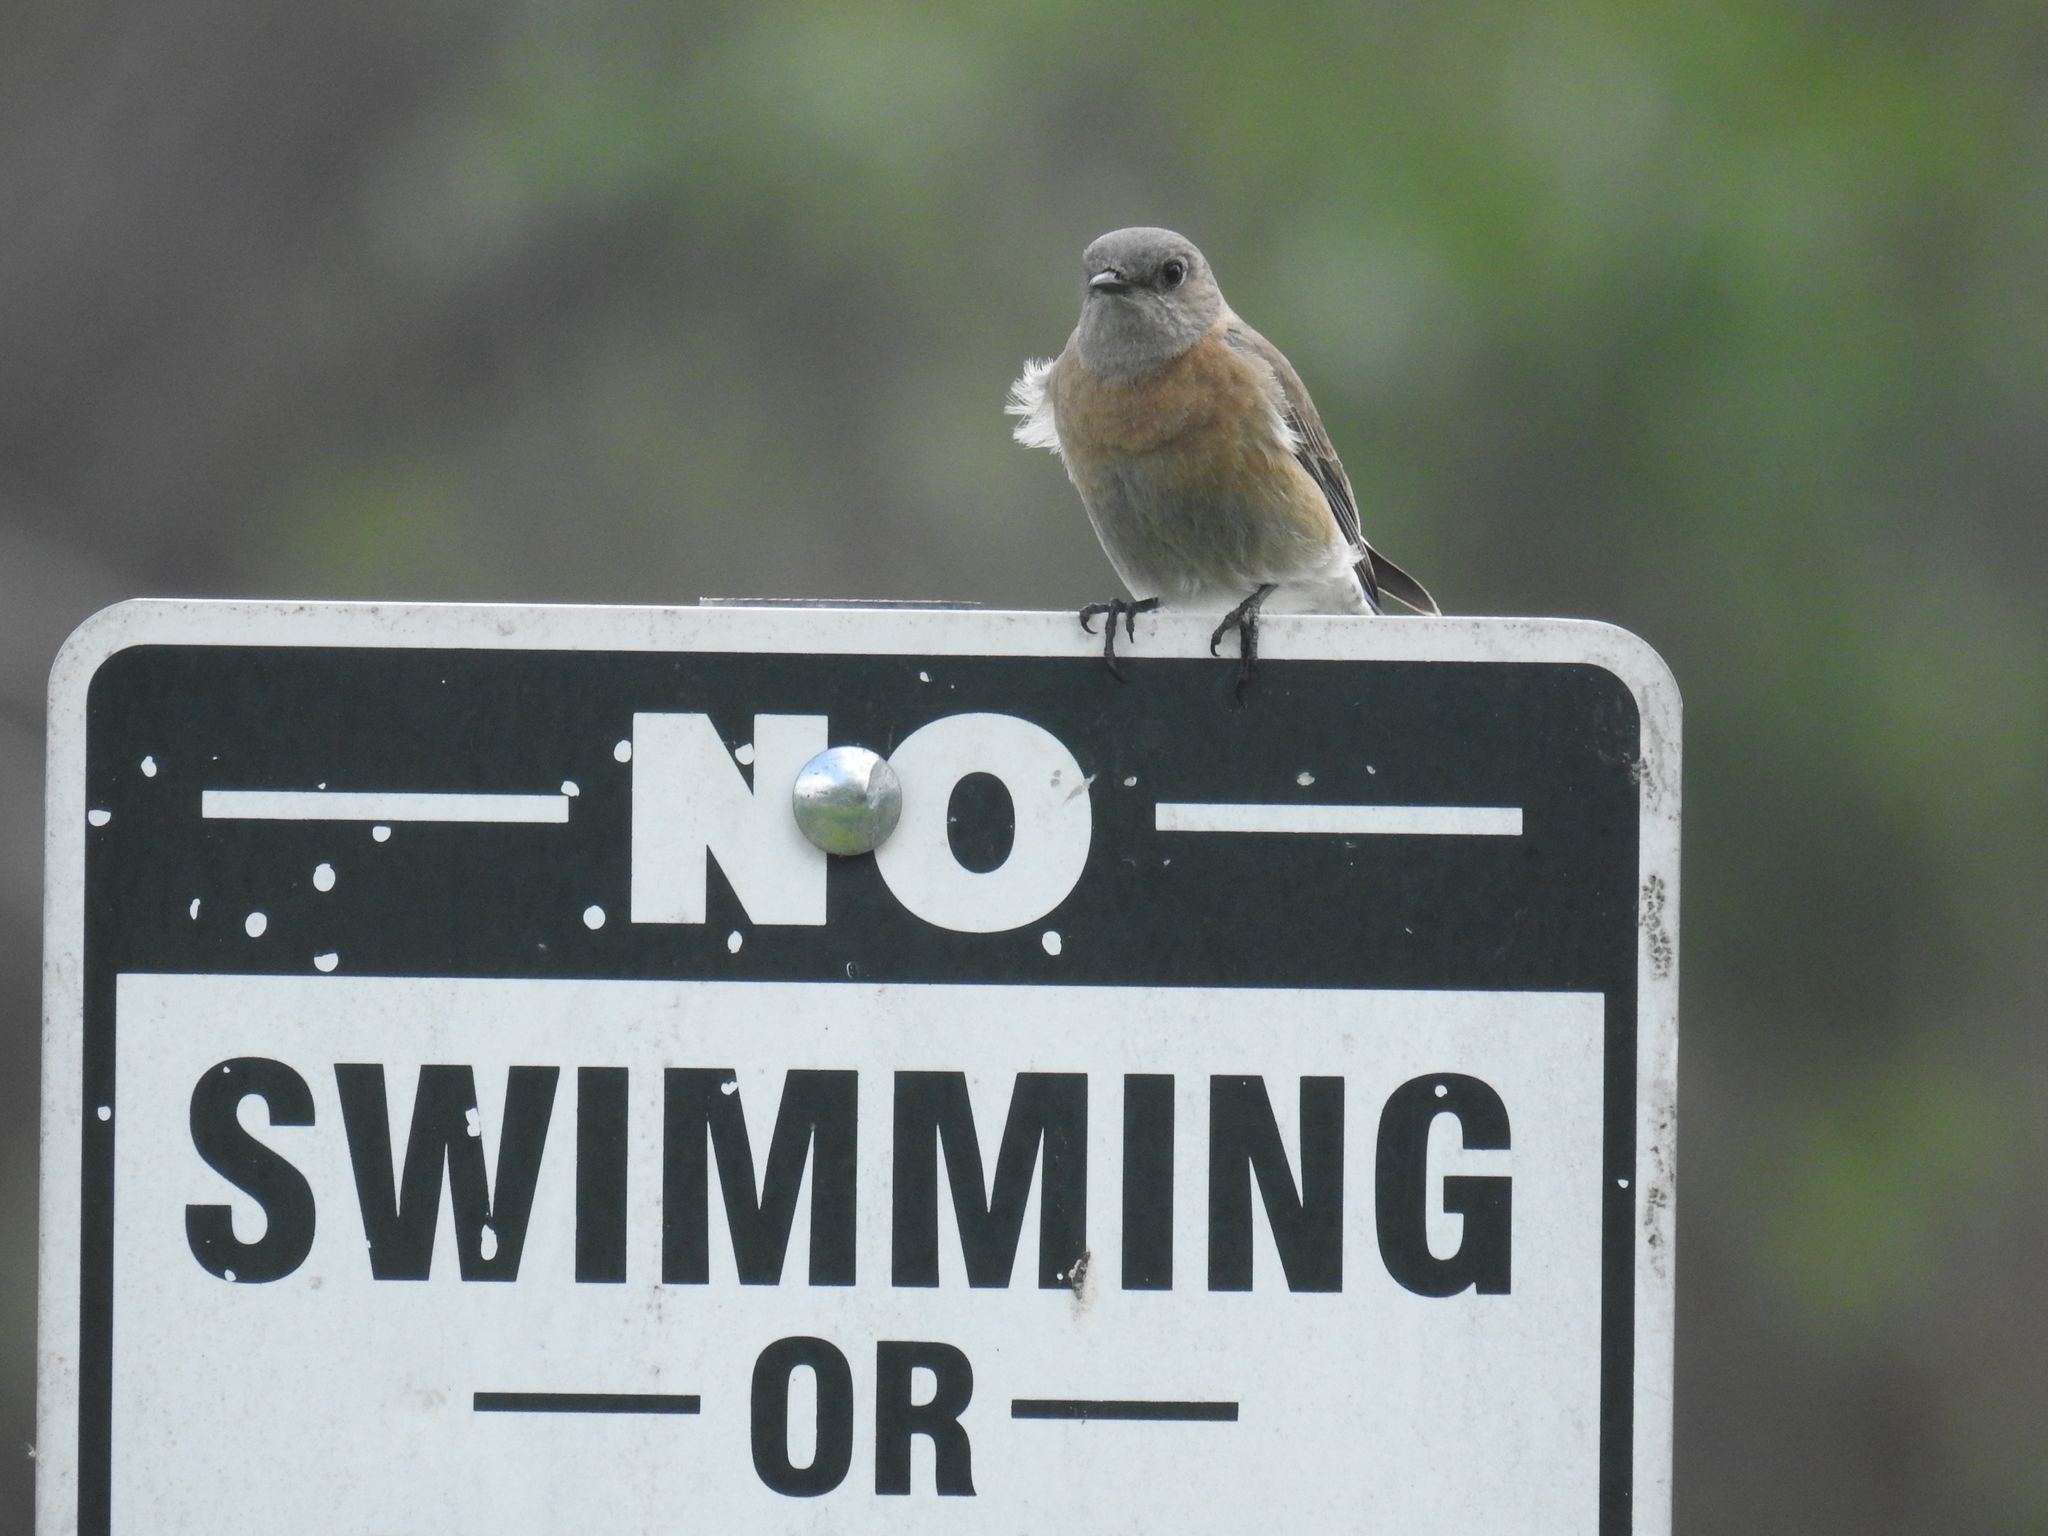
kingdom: Animalia
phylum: Chordata
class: Aves
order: Passeriformes
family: Turdidae
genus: Sialia
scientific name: Sialia mexicana
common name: Western bluebird
